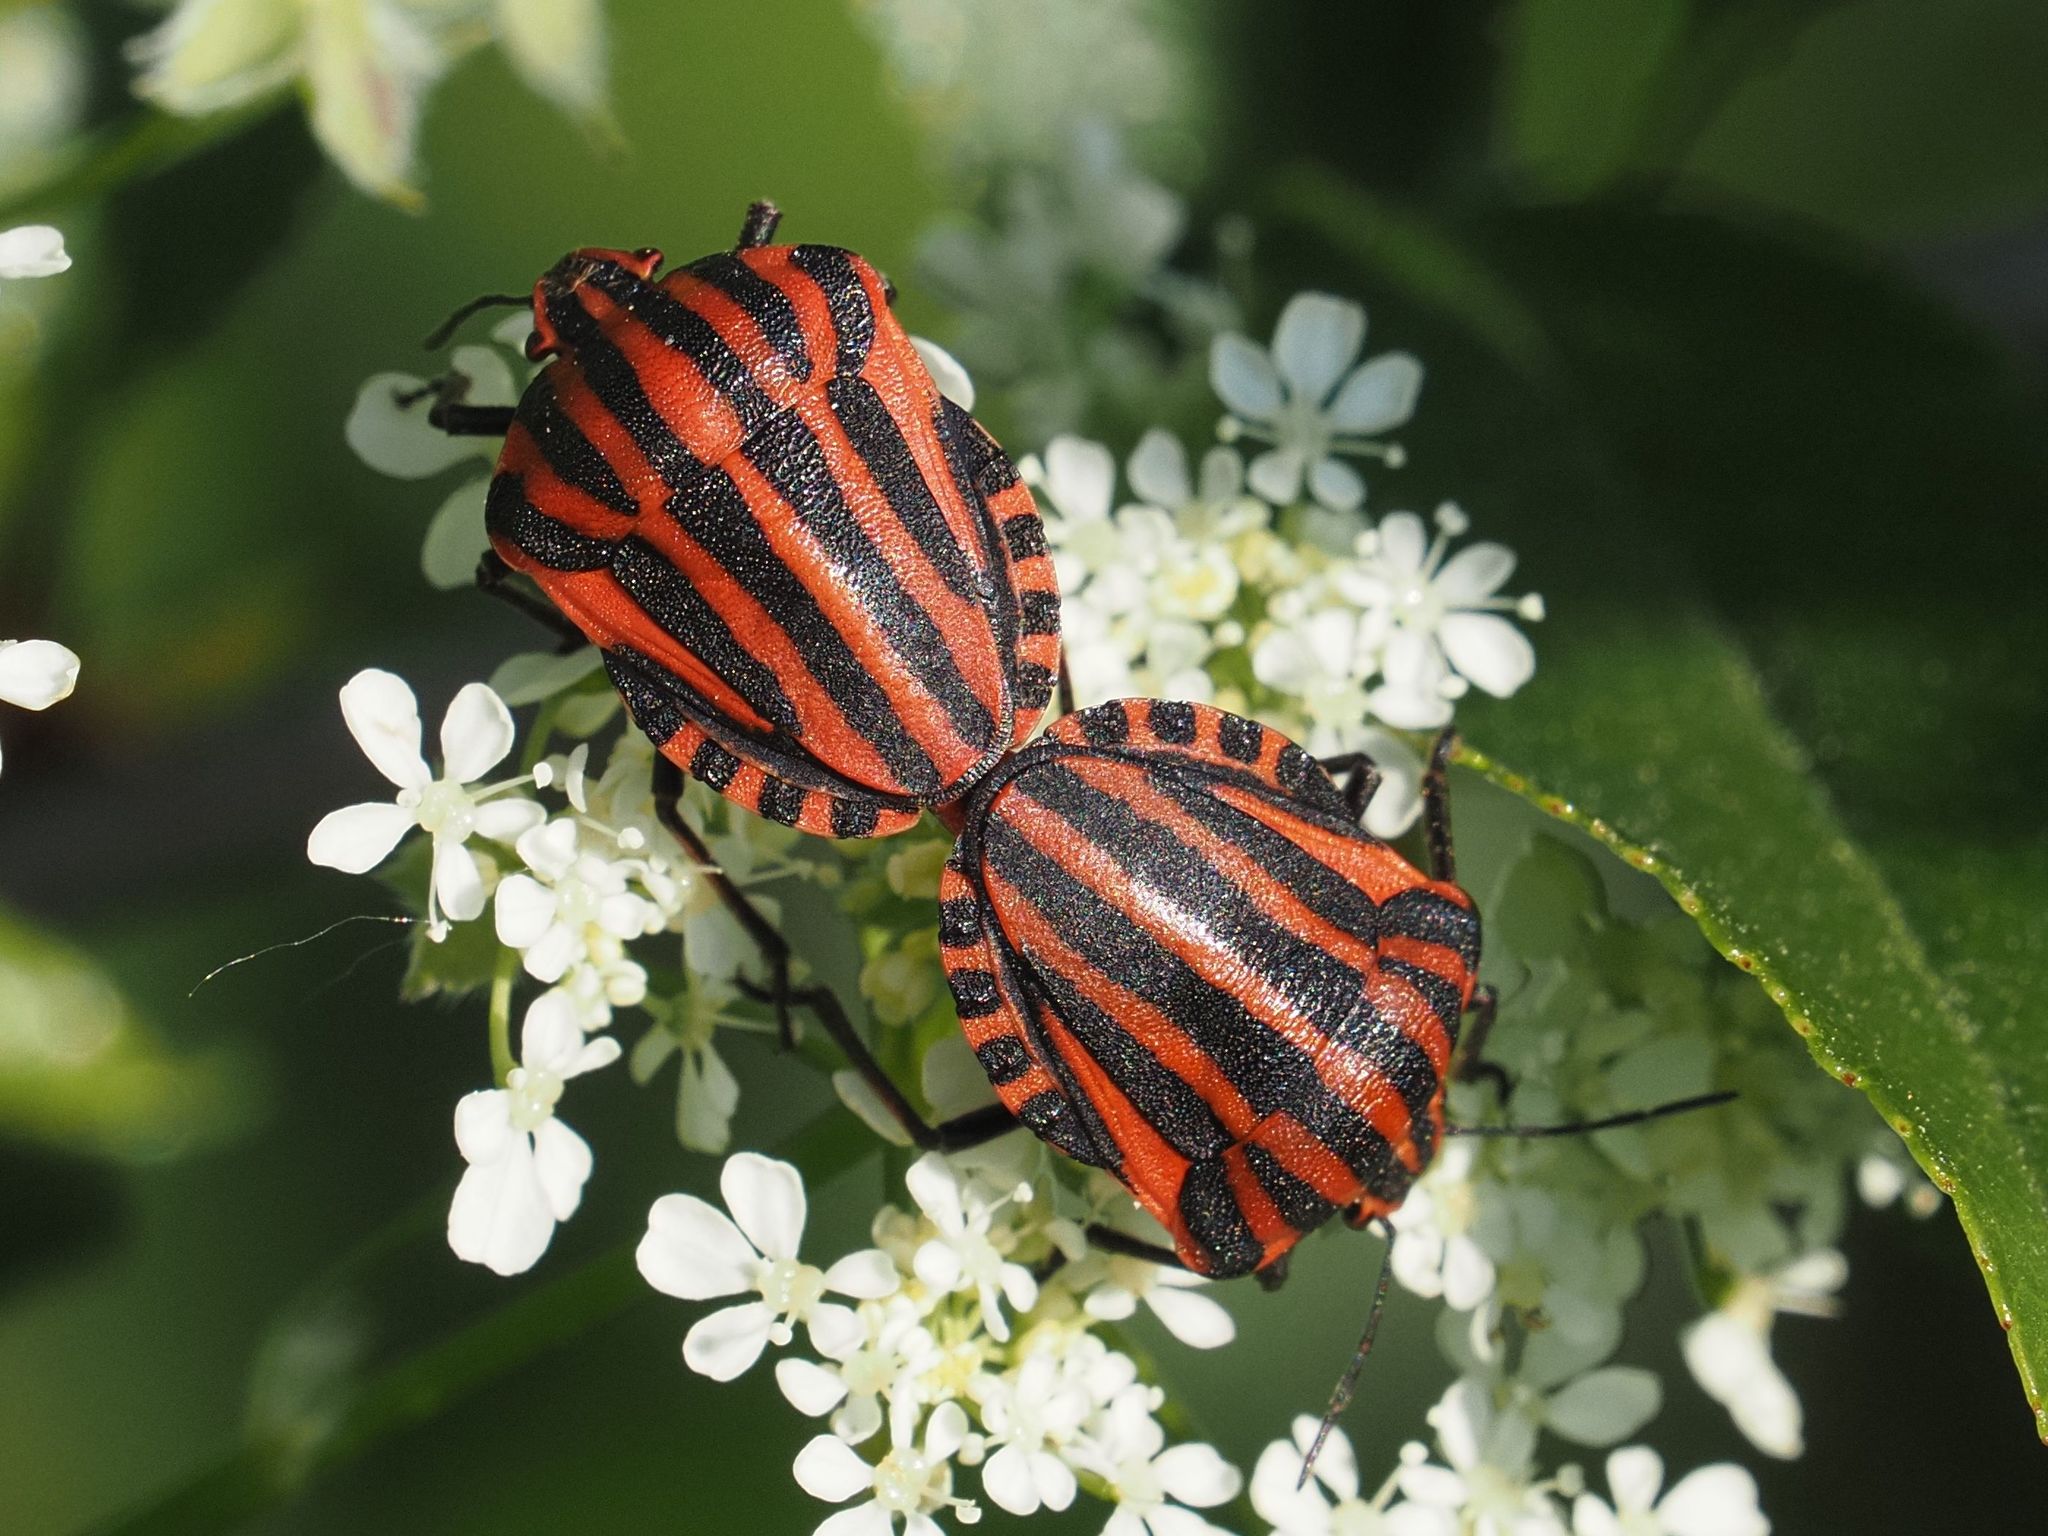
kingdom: Animalia
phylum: Arthropoda
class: Insecta
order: Hemiptera
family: Pentatomidae
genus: Graphosoma
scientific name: Graphosoma italicum
